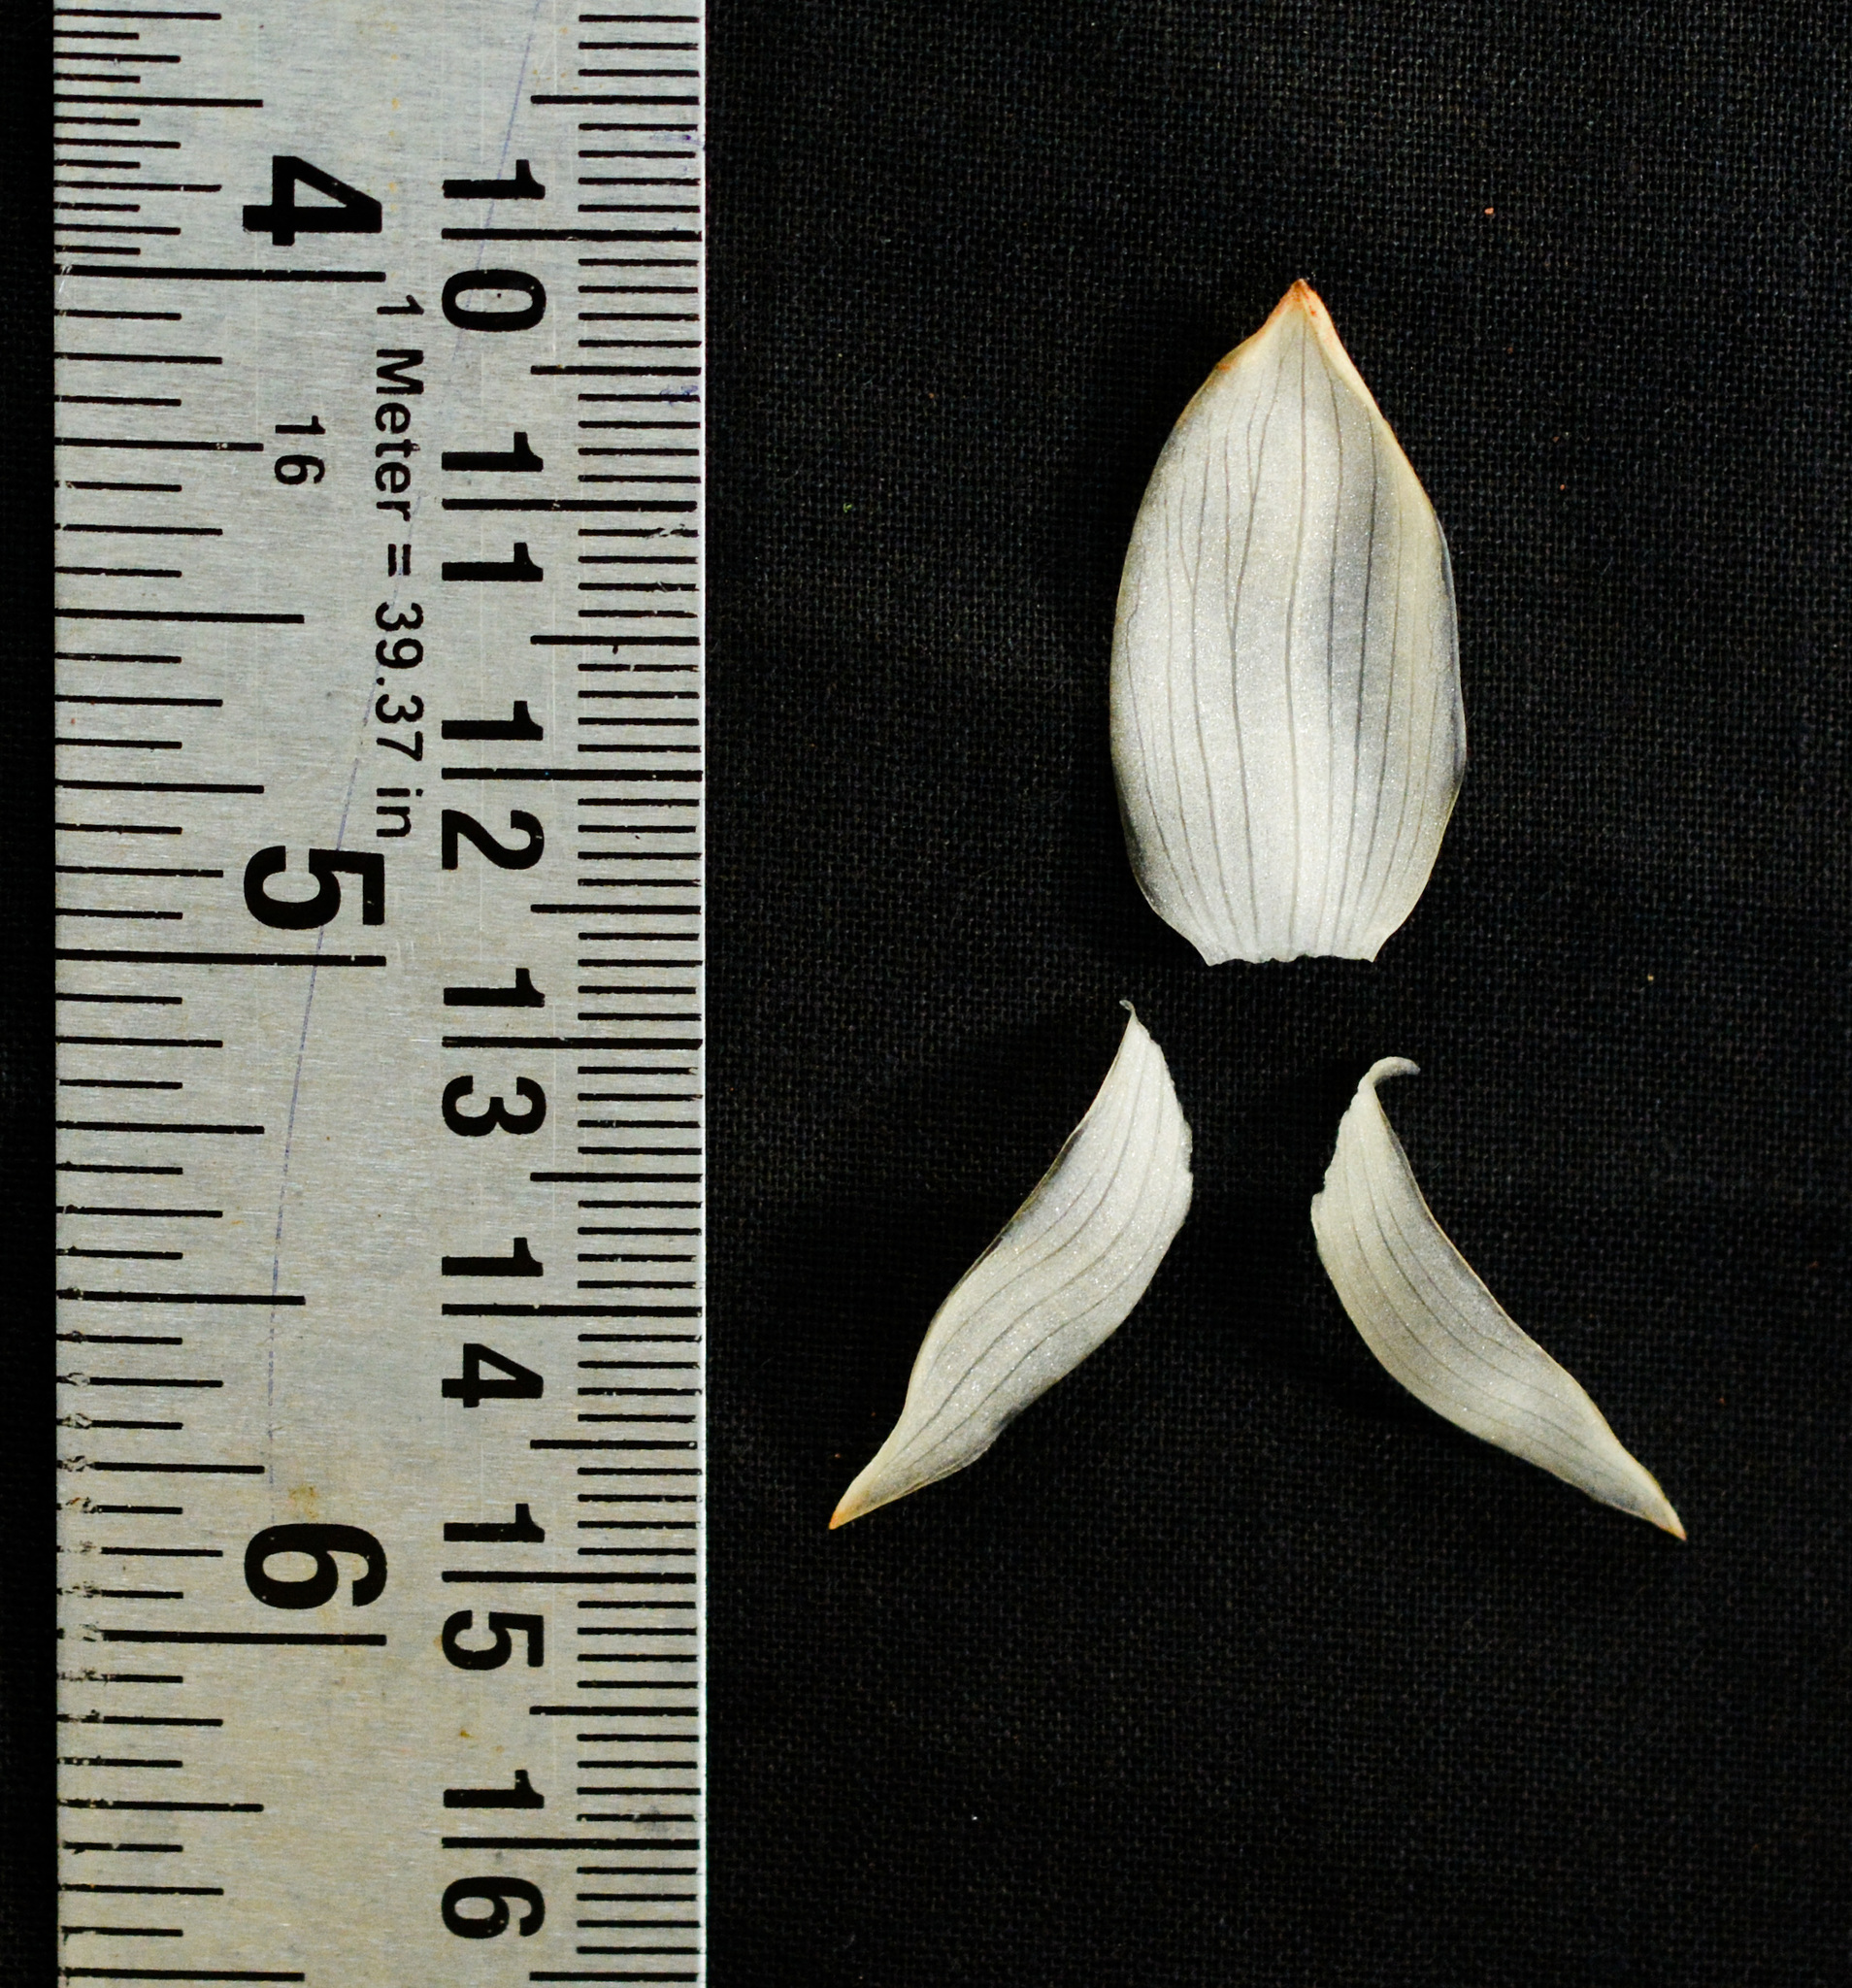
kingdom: Plantae
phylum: Tracheophyta
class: Liliopsida
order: Zingiberales
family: Zingiberaceae
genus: Zingiber
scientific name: Zingiber anamalayanum
